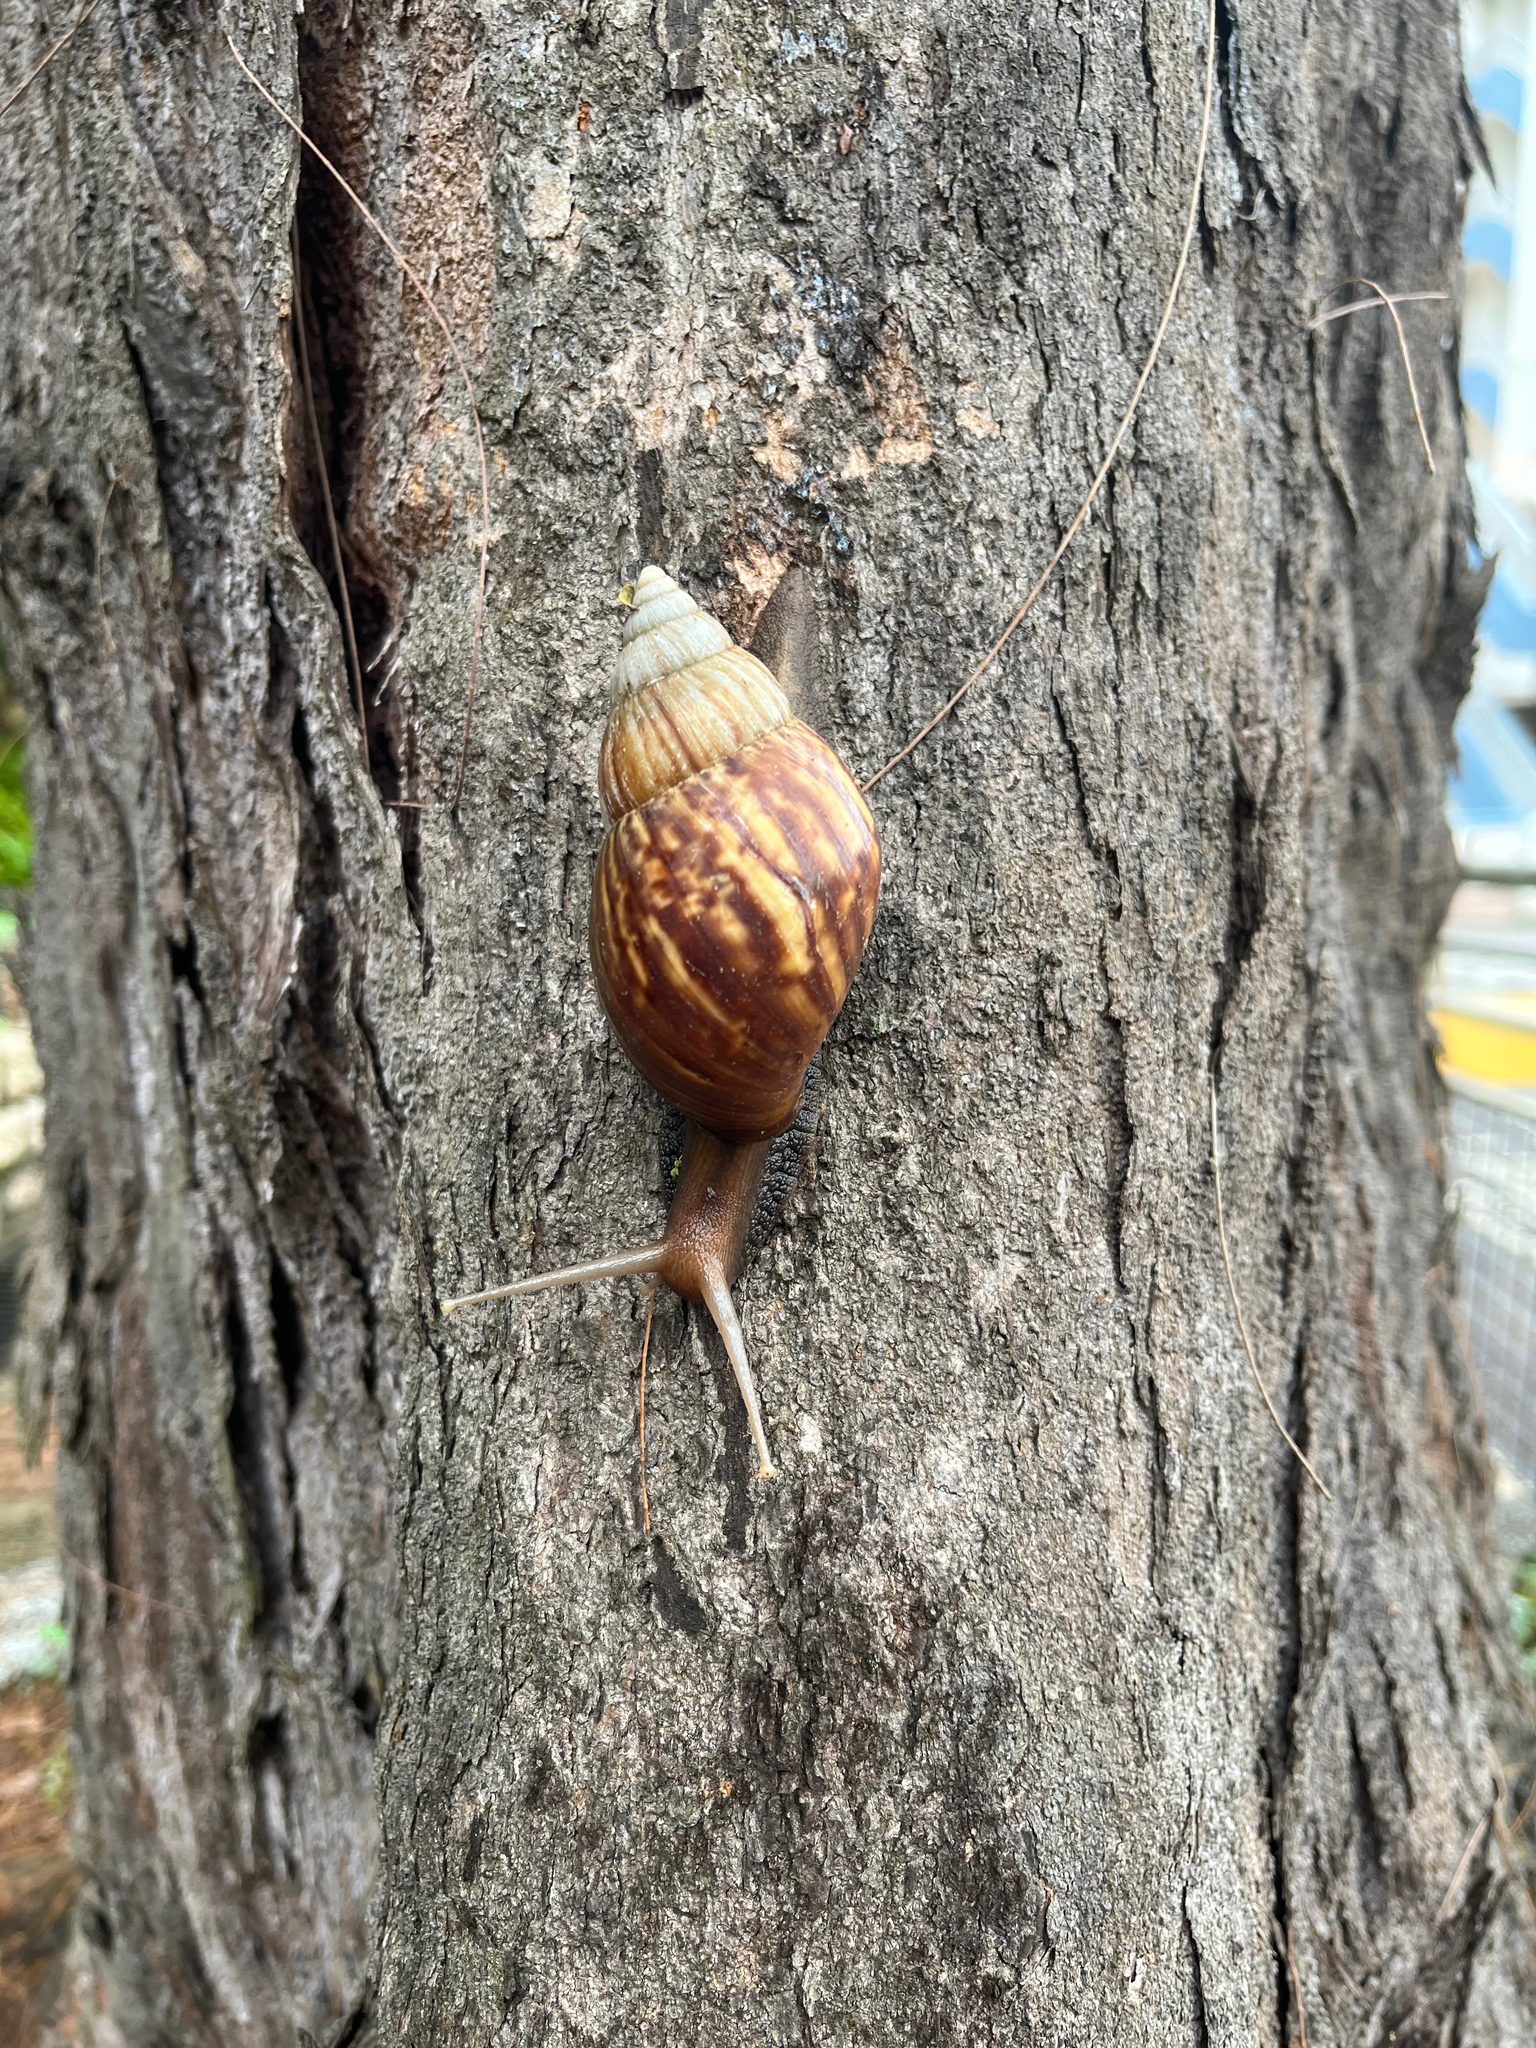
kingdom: Animalia
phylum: Mollusca
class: Gastropoda
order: Stylommatophora
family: Achatinidae
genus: Lissachatina
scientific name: Lissachatina fulica
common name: Giant african snail
